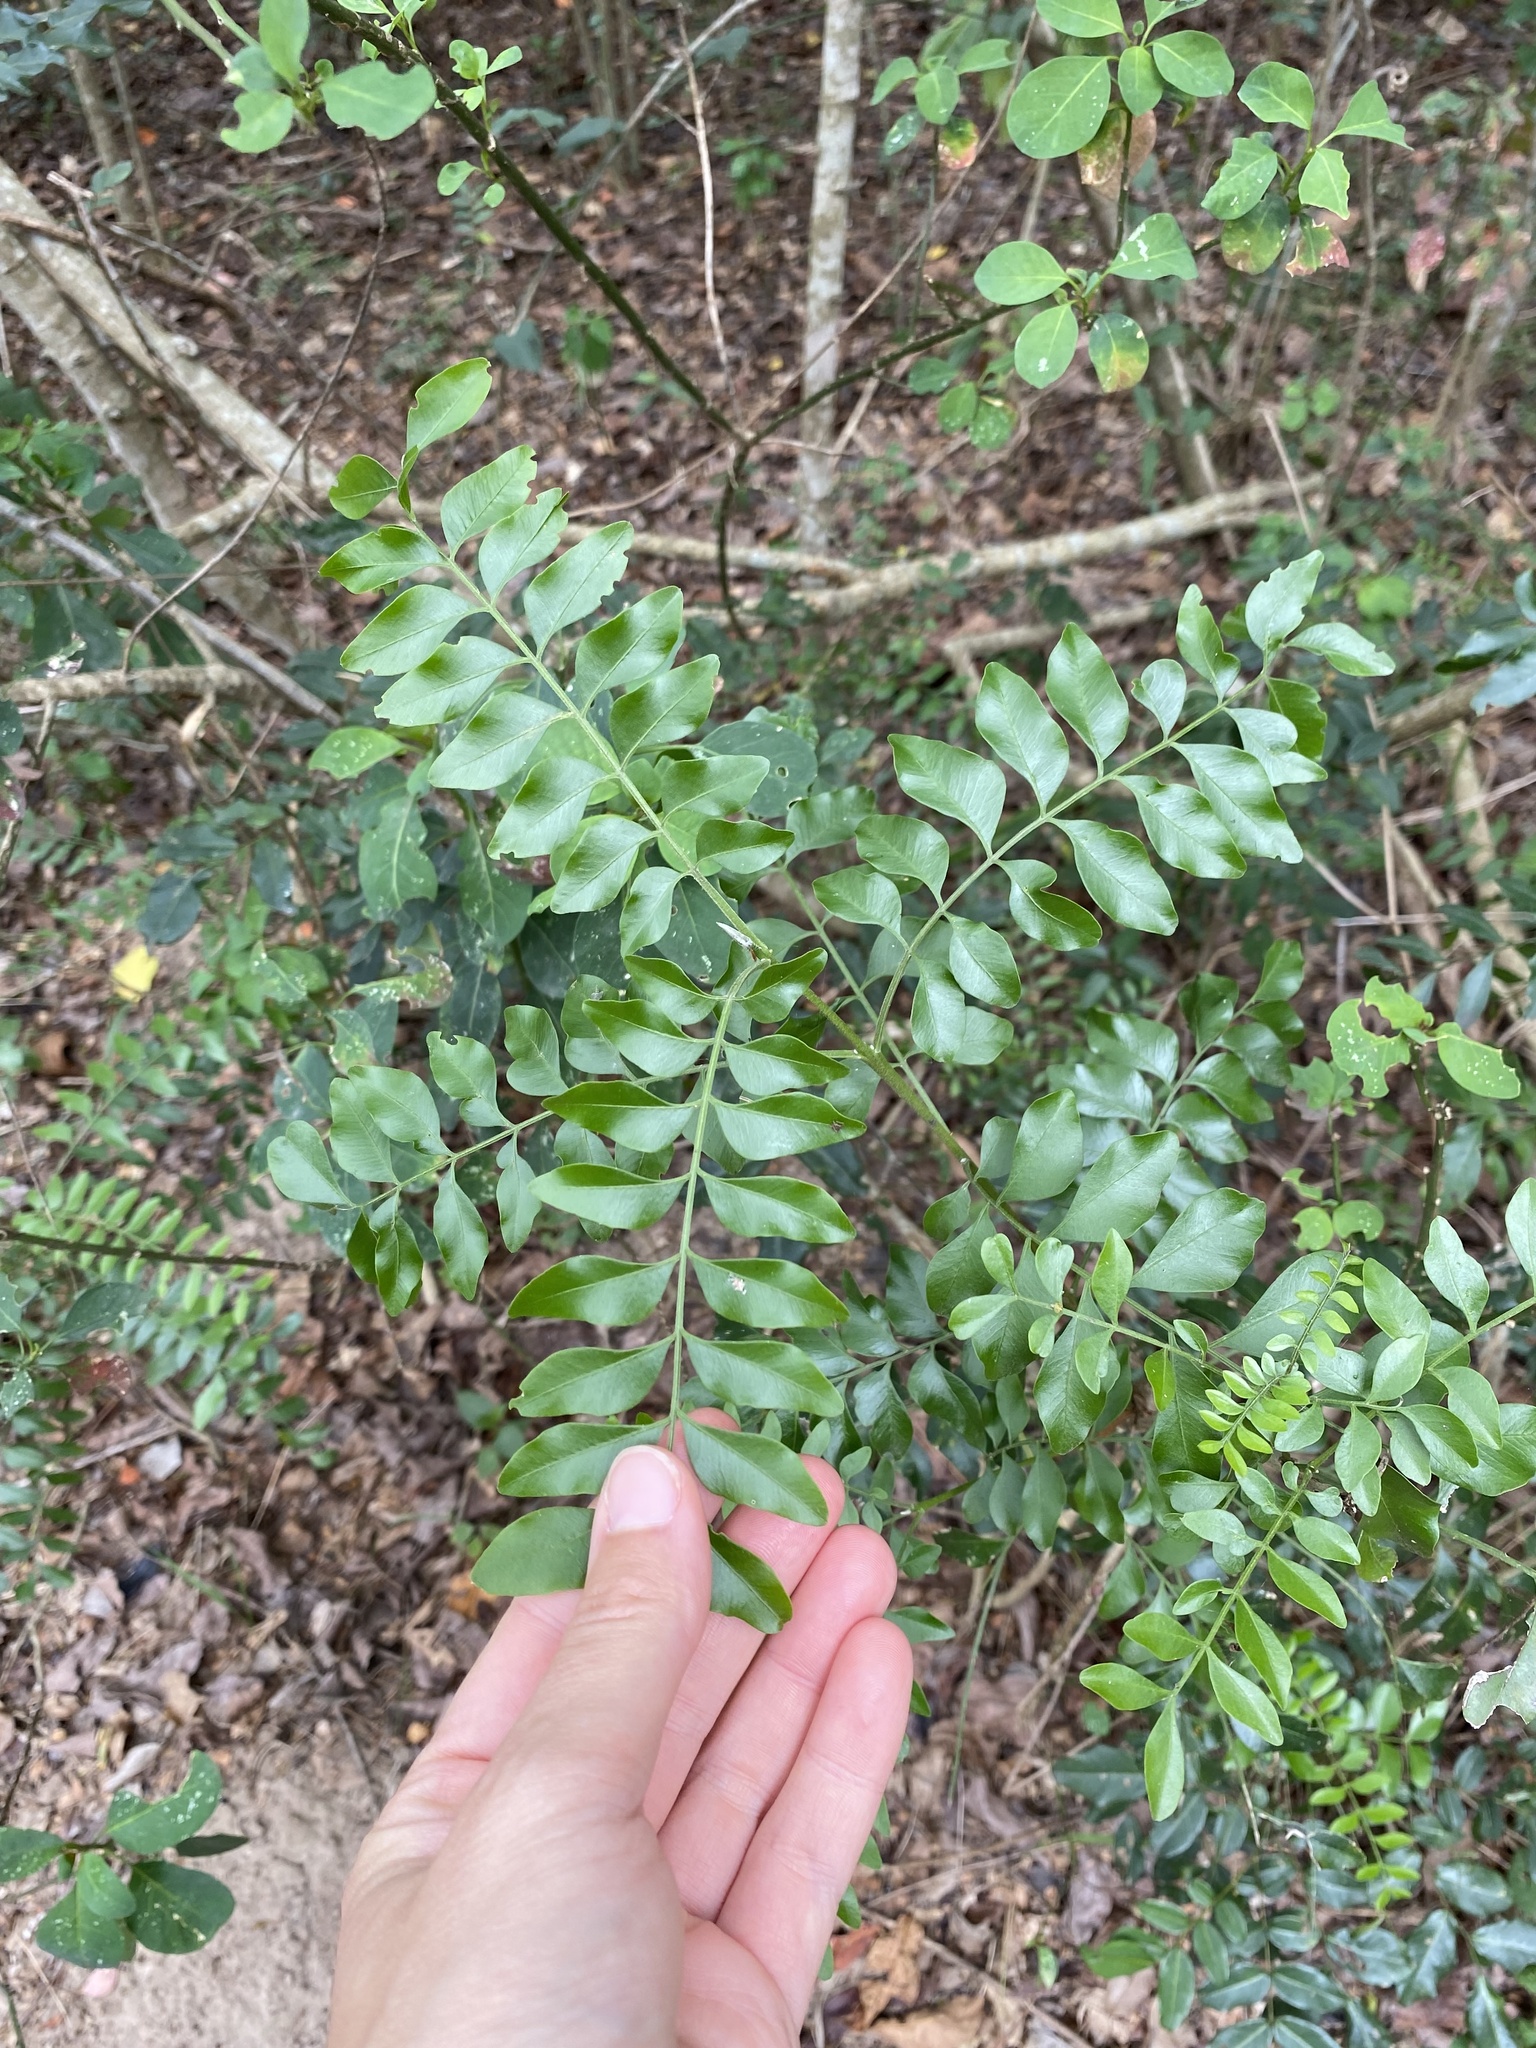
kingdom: Plantae
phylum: Tracheophyta
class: Magnoliopsida
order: Sapindales
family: Rutaceae
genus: Clausena
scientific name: Clausena anisata
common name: Horsewood
